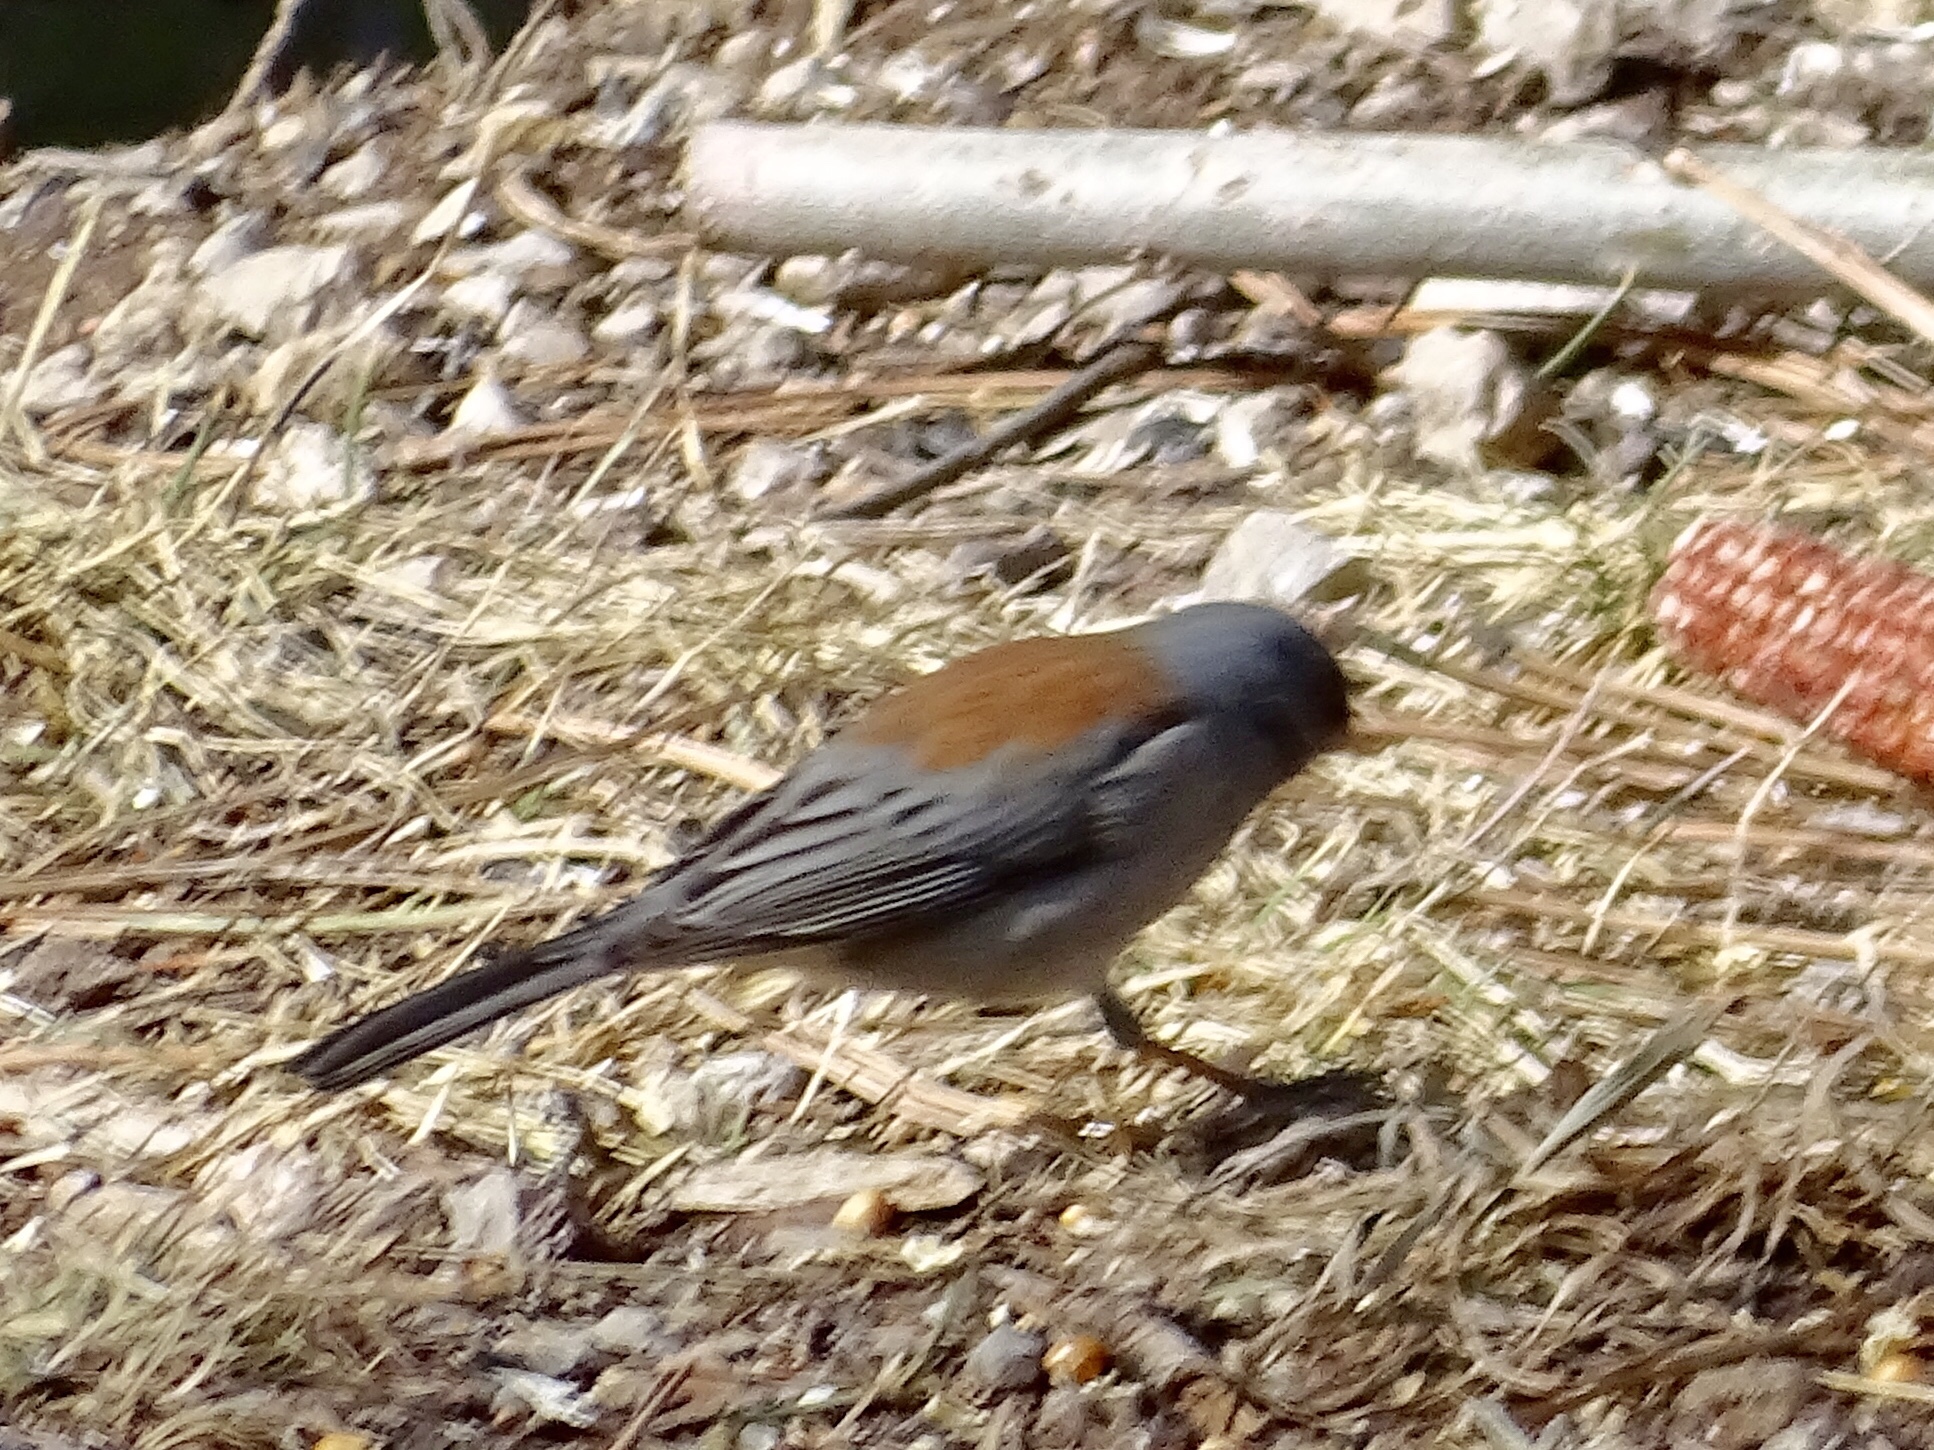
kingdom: Animalia
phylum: Chordata
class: Aves
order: Passeriformes
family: Passerellidae
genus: Junco
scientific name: Junco hyemalis
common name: Dark-eyed junco
